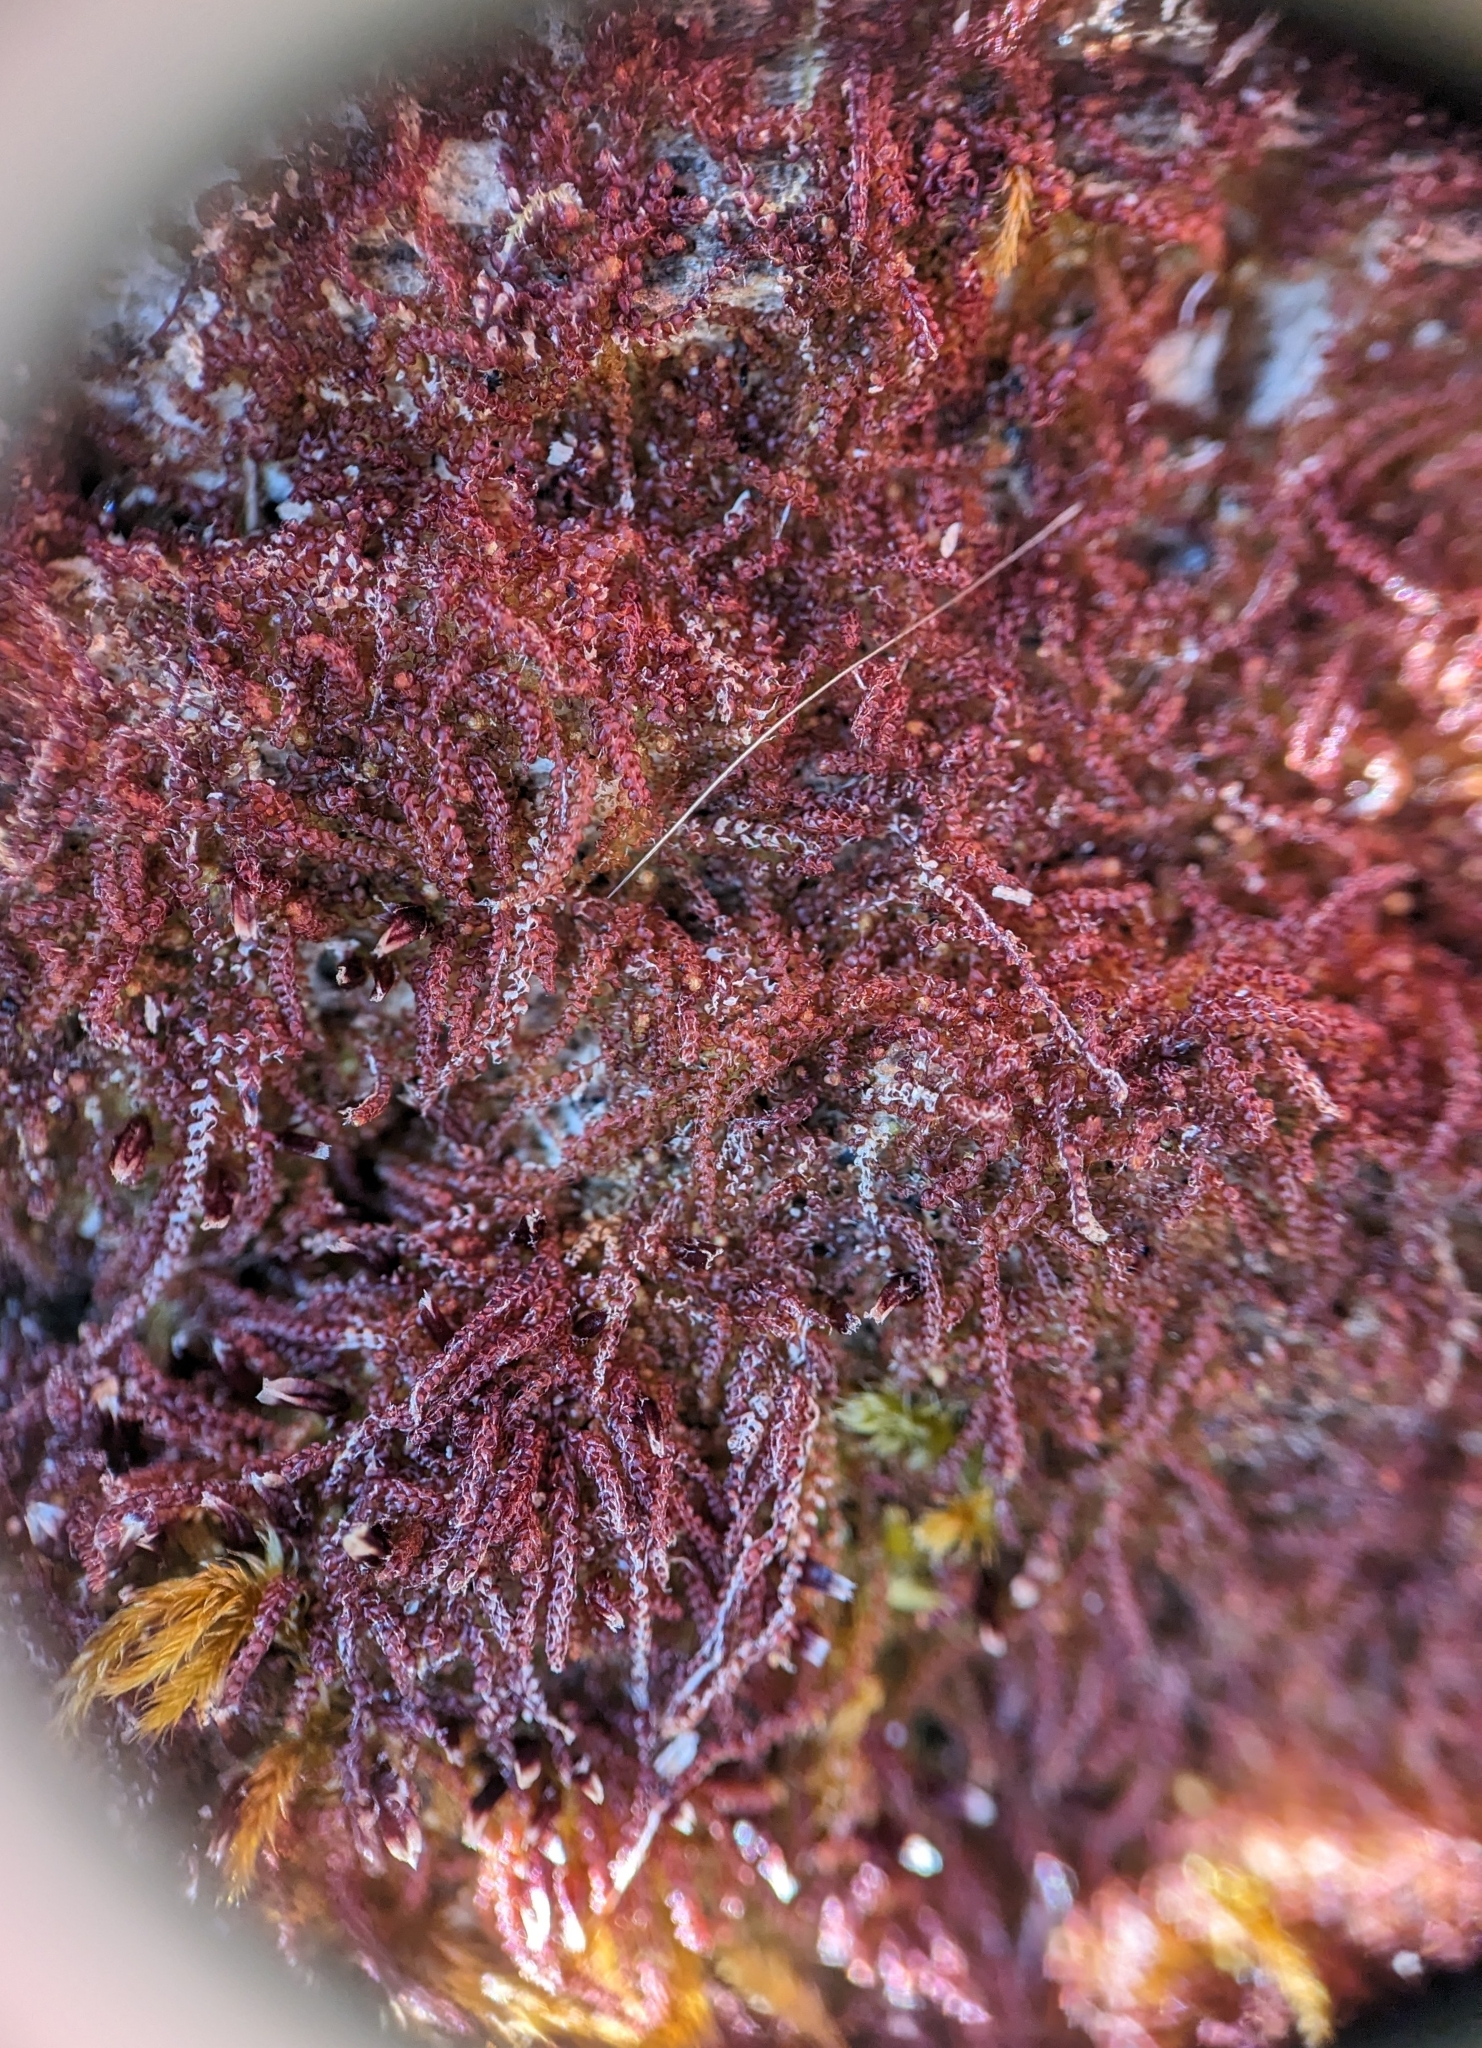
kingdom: Plantae
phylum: Marchantiophyta
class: Jungermanniopsida
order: Jungermanniales
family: Cephaloziaceae
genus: Nowellia
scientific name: Nowellia curvifolia
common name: Wood rustwort
